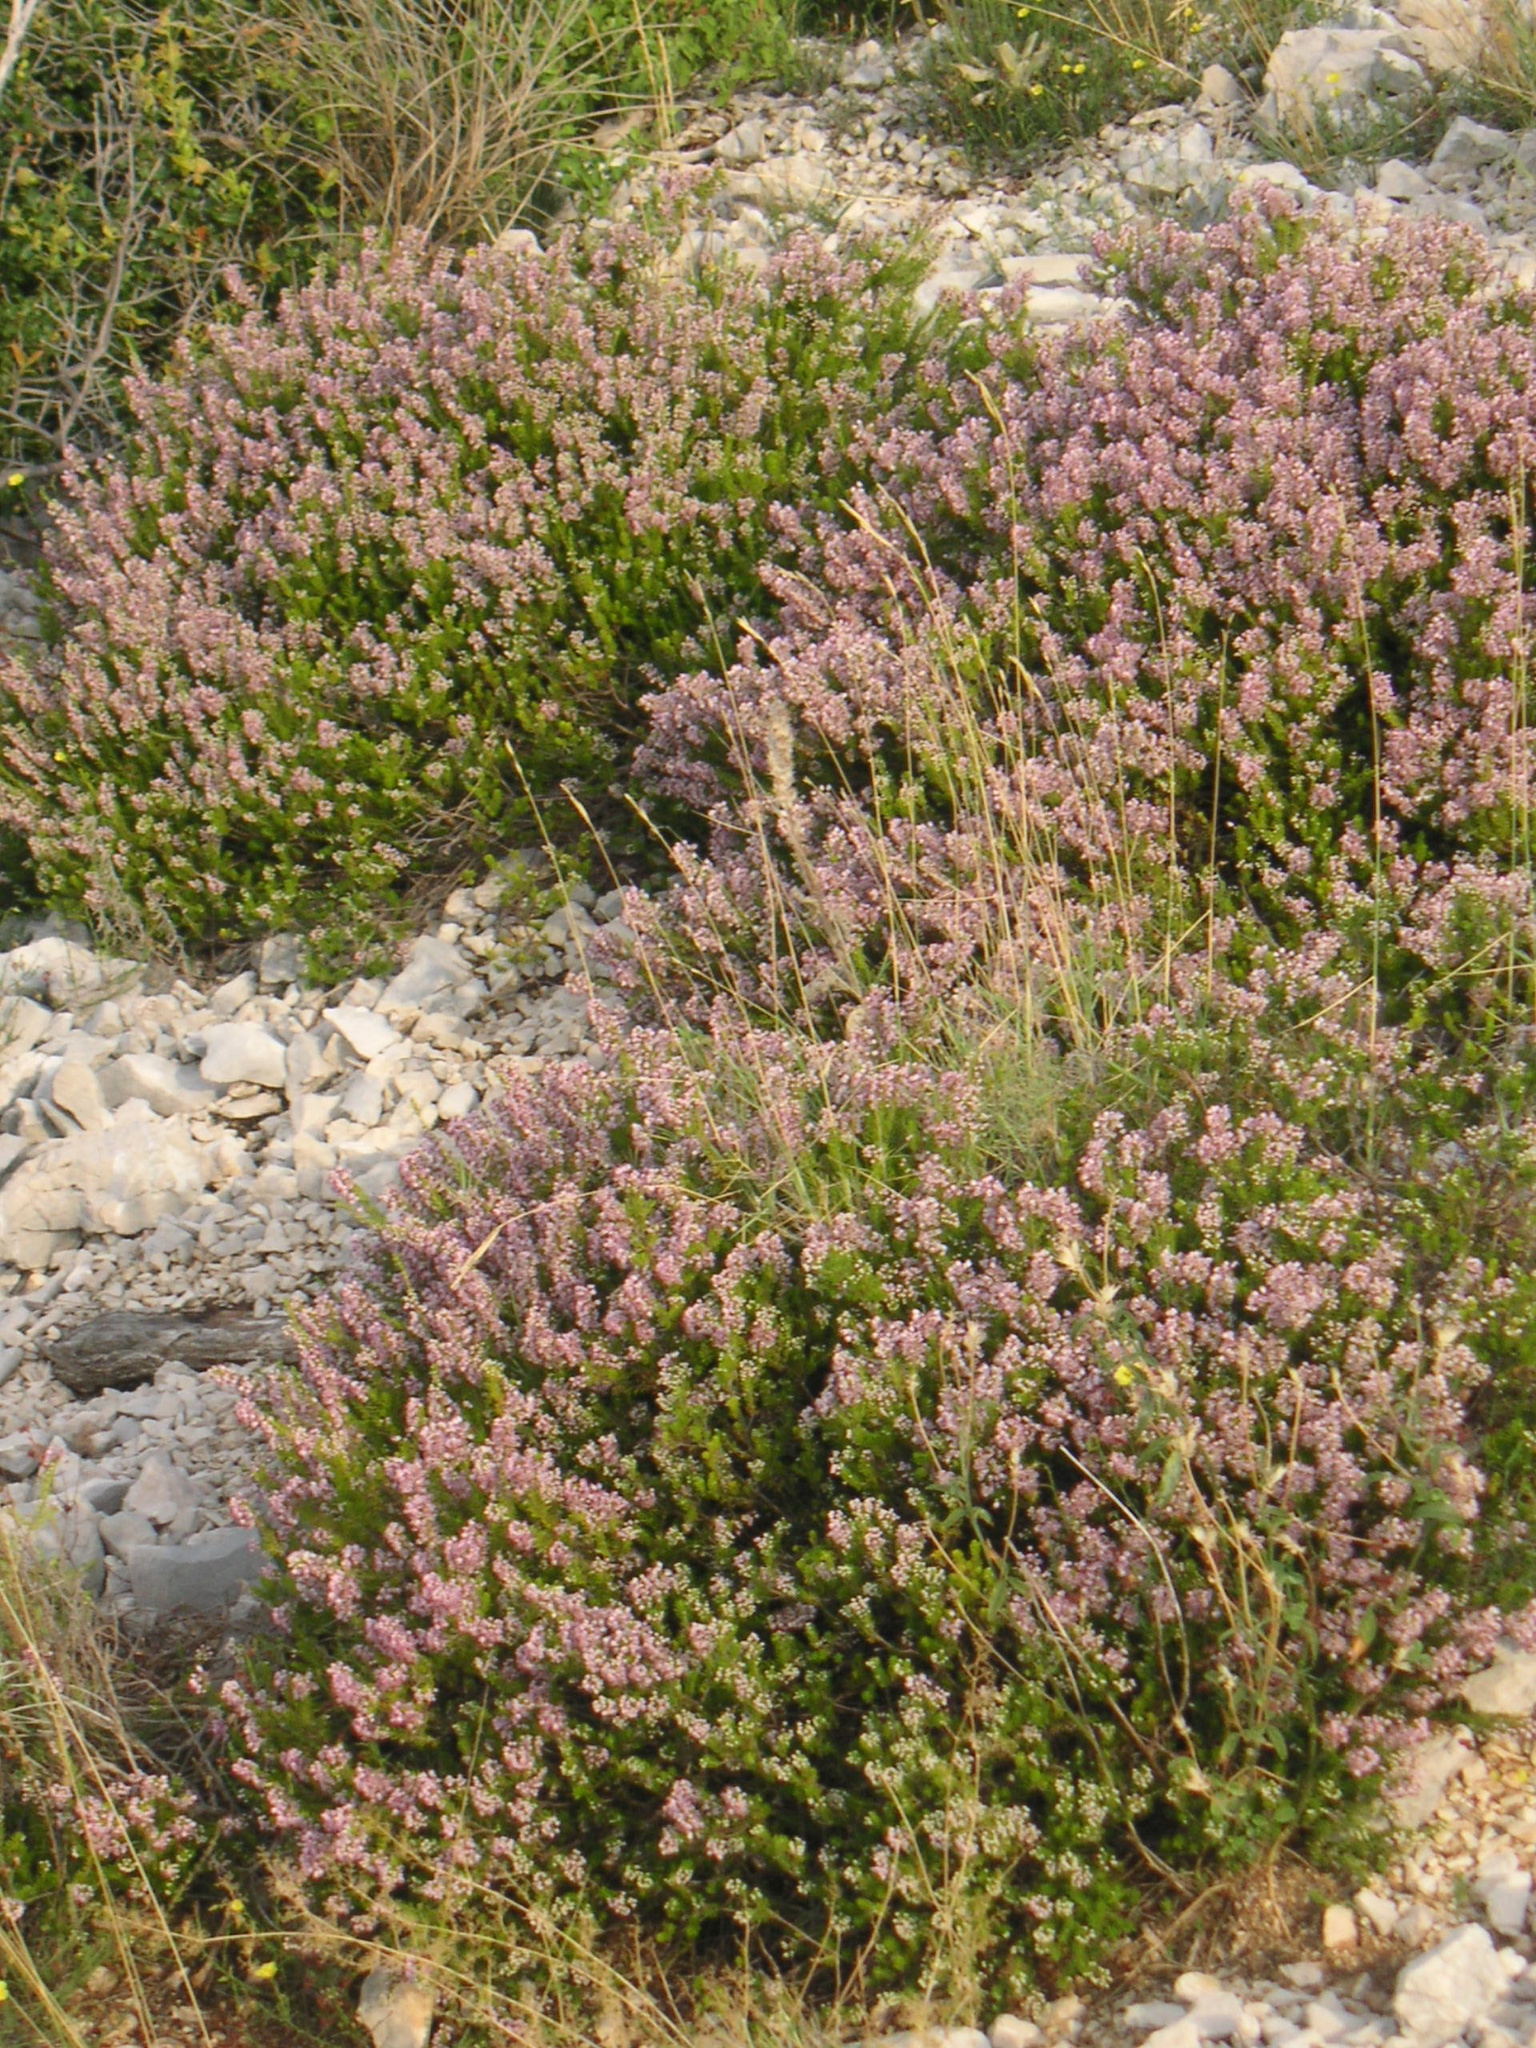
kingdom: Plantae
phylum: Tracheophyta
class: Magnoliopsida
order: Ericales
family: Ericaceae
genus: Erica
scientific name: Erica manipuliflora
